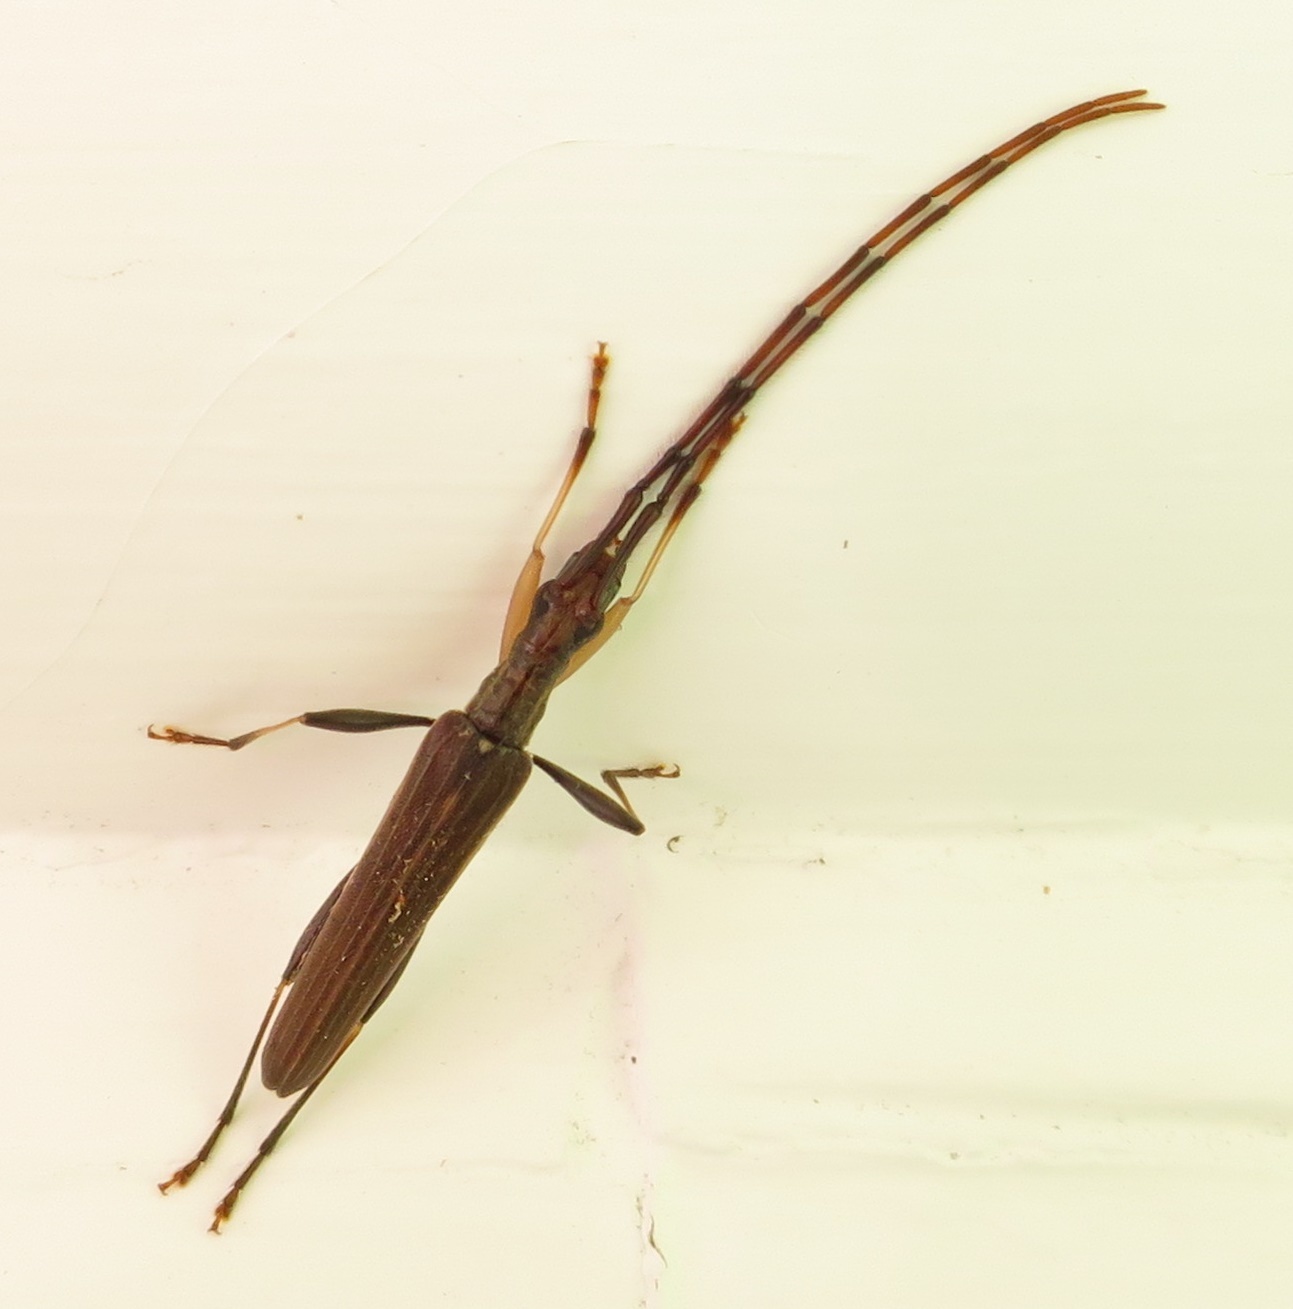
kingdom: Animalia
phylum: Arthropoda
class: Insecta
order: Coleoptera
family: Cerambycidae
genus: Stenopotes
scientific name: Stenopotes pallidus
